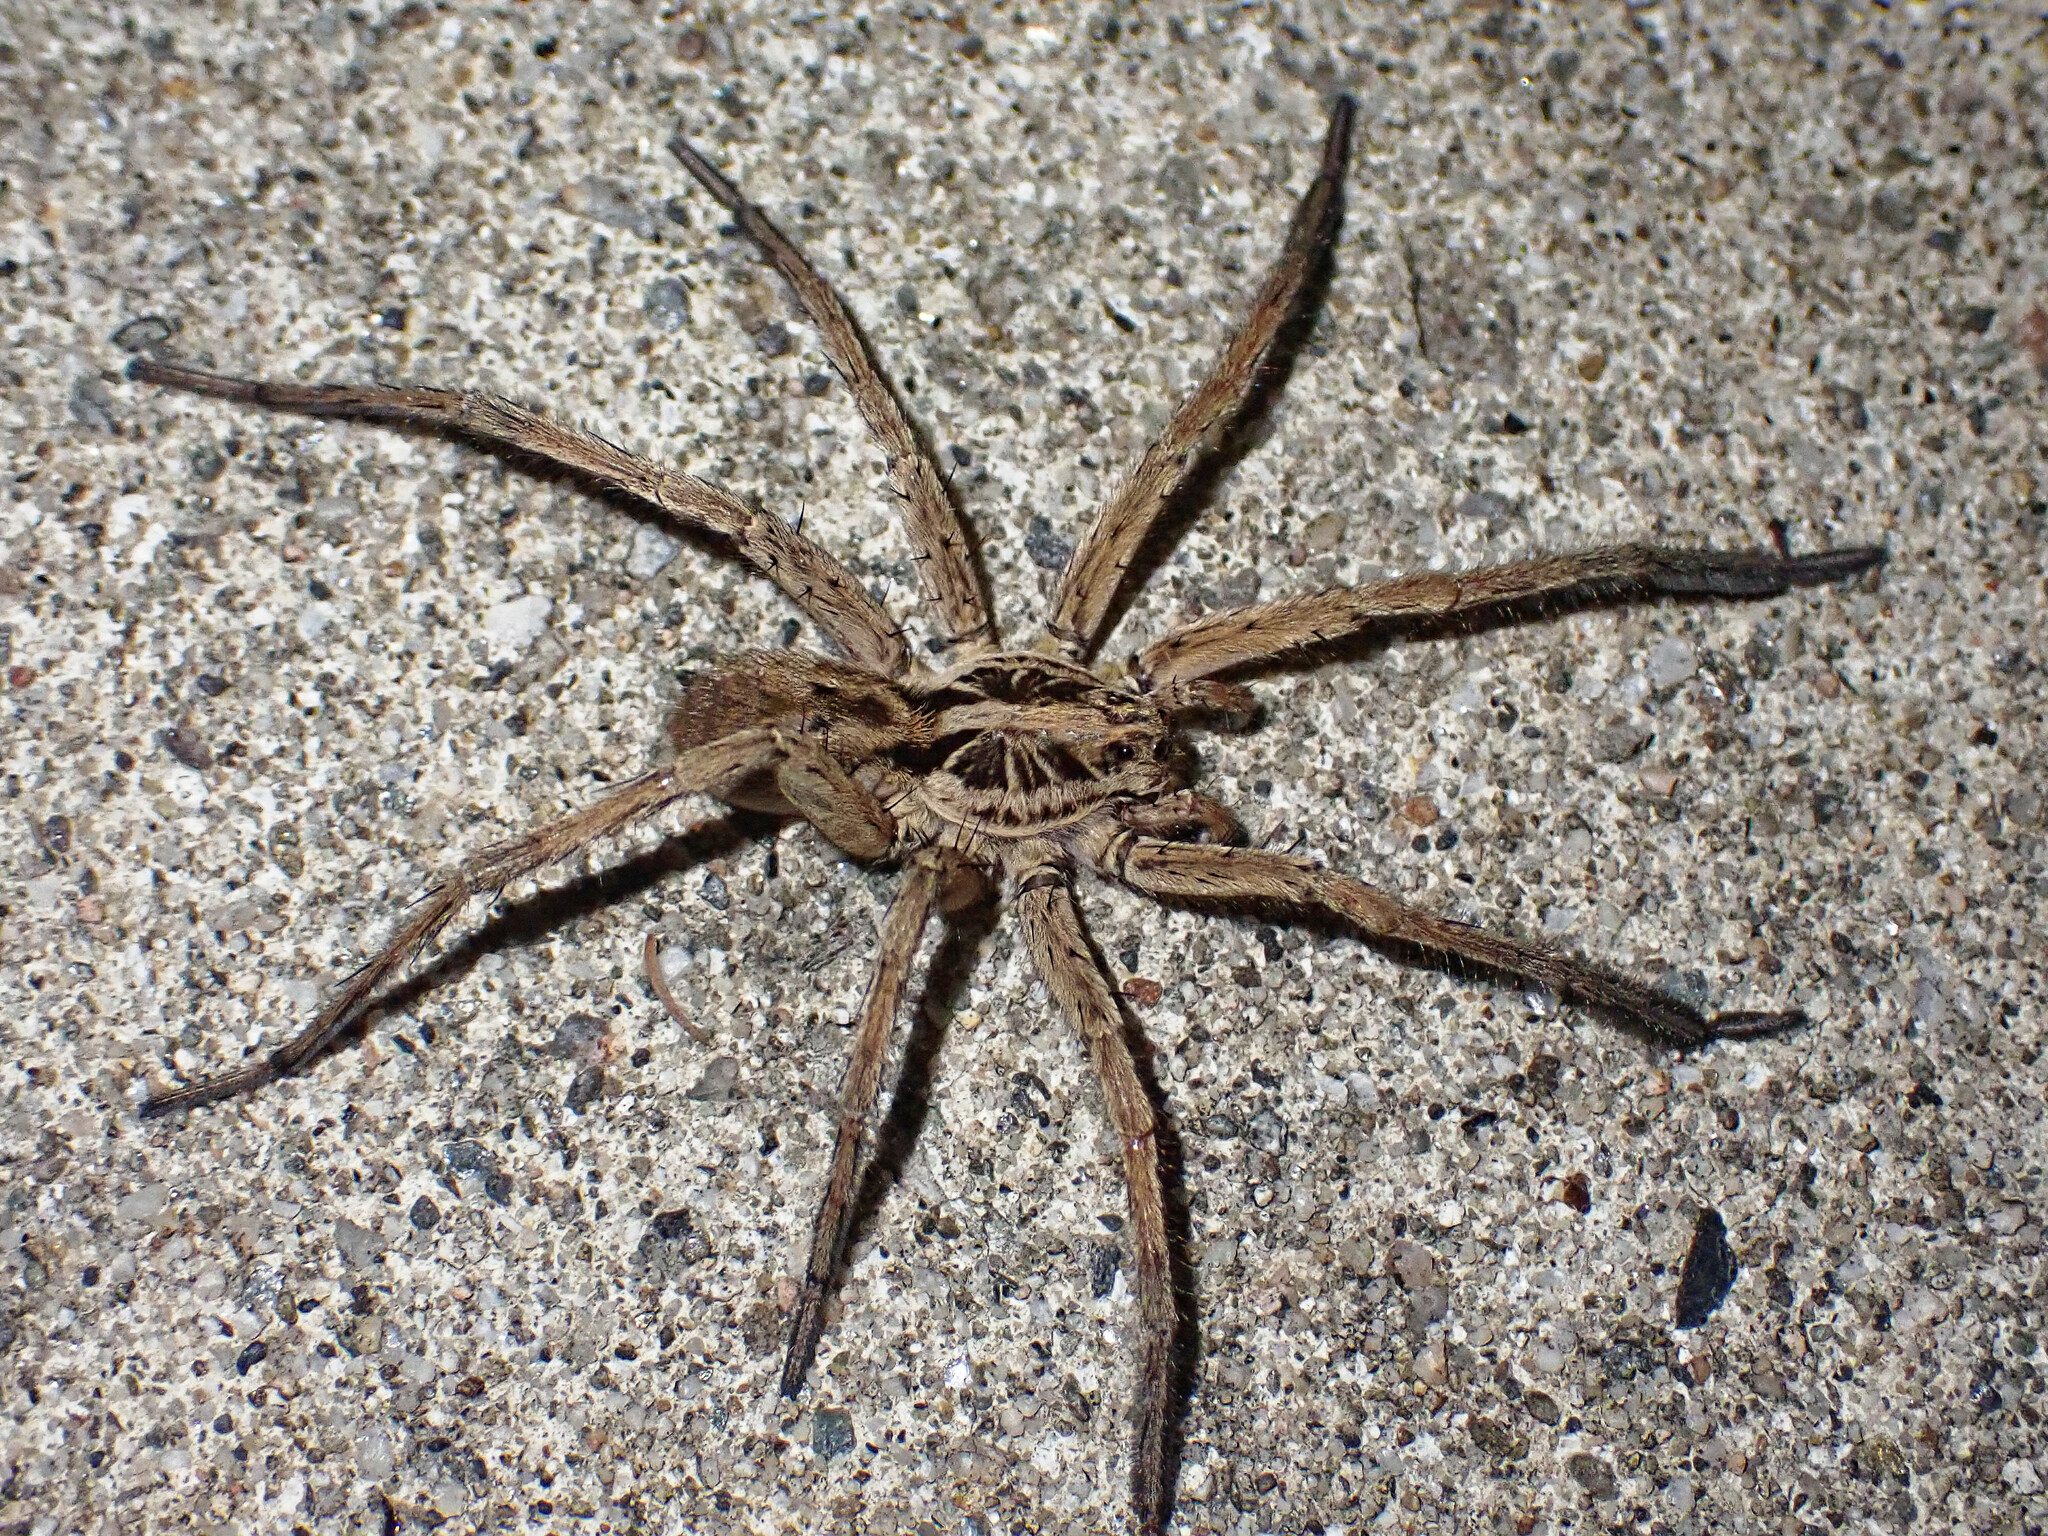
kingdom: Animalia
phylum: Arthropoda
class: Arachnida
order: Araneae
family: Lycosidae
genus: Hogna
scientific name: Hogna radiata
